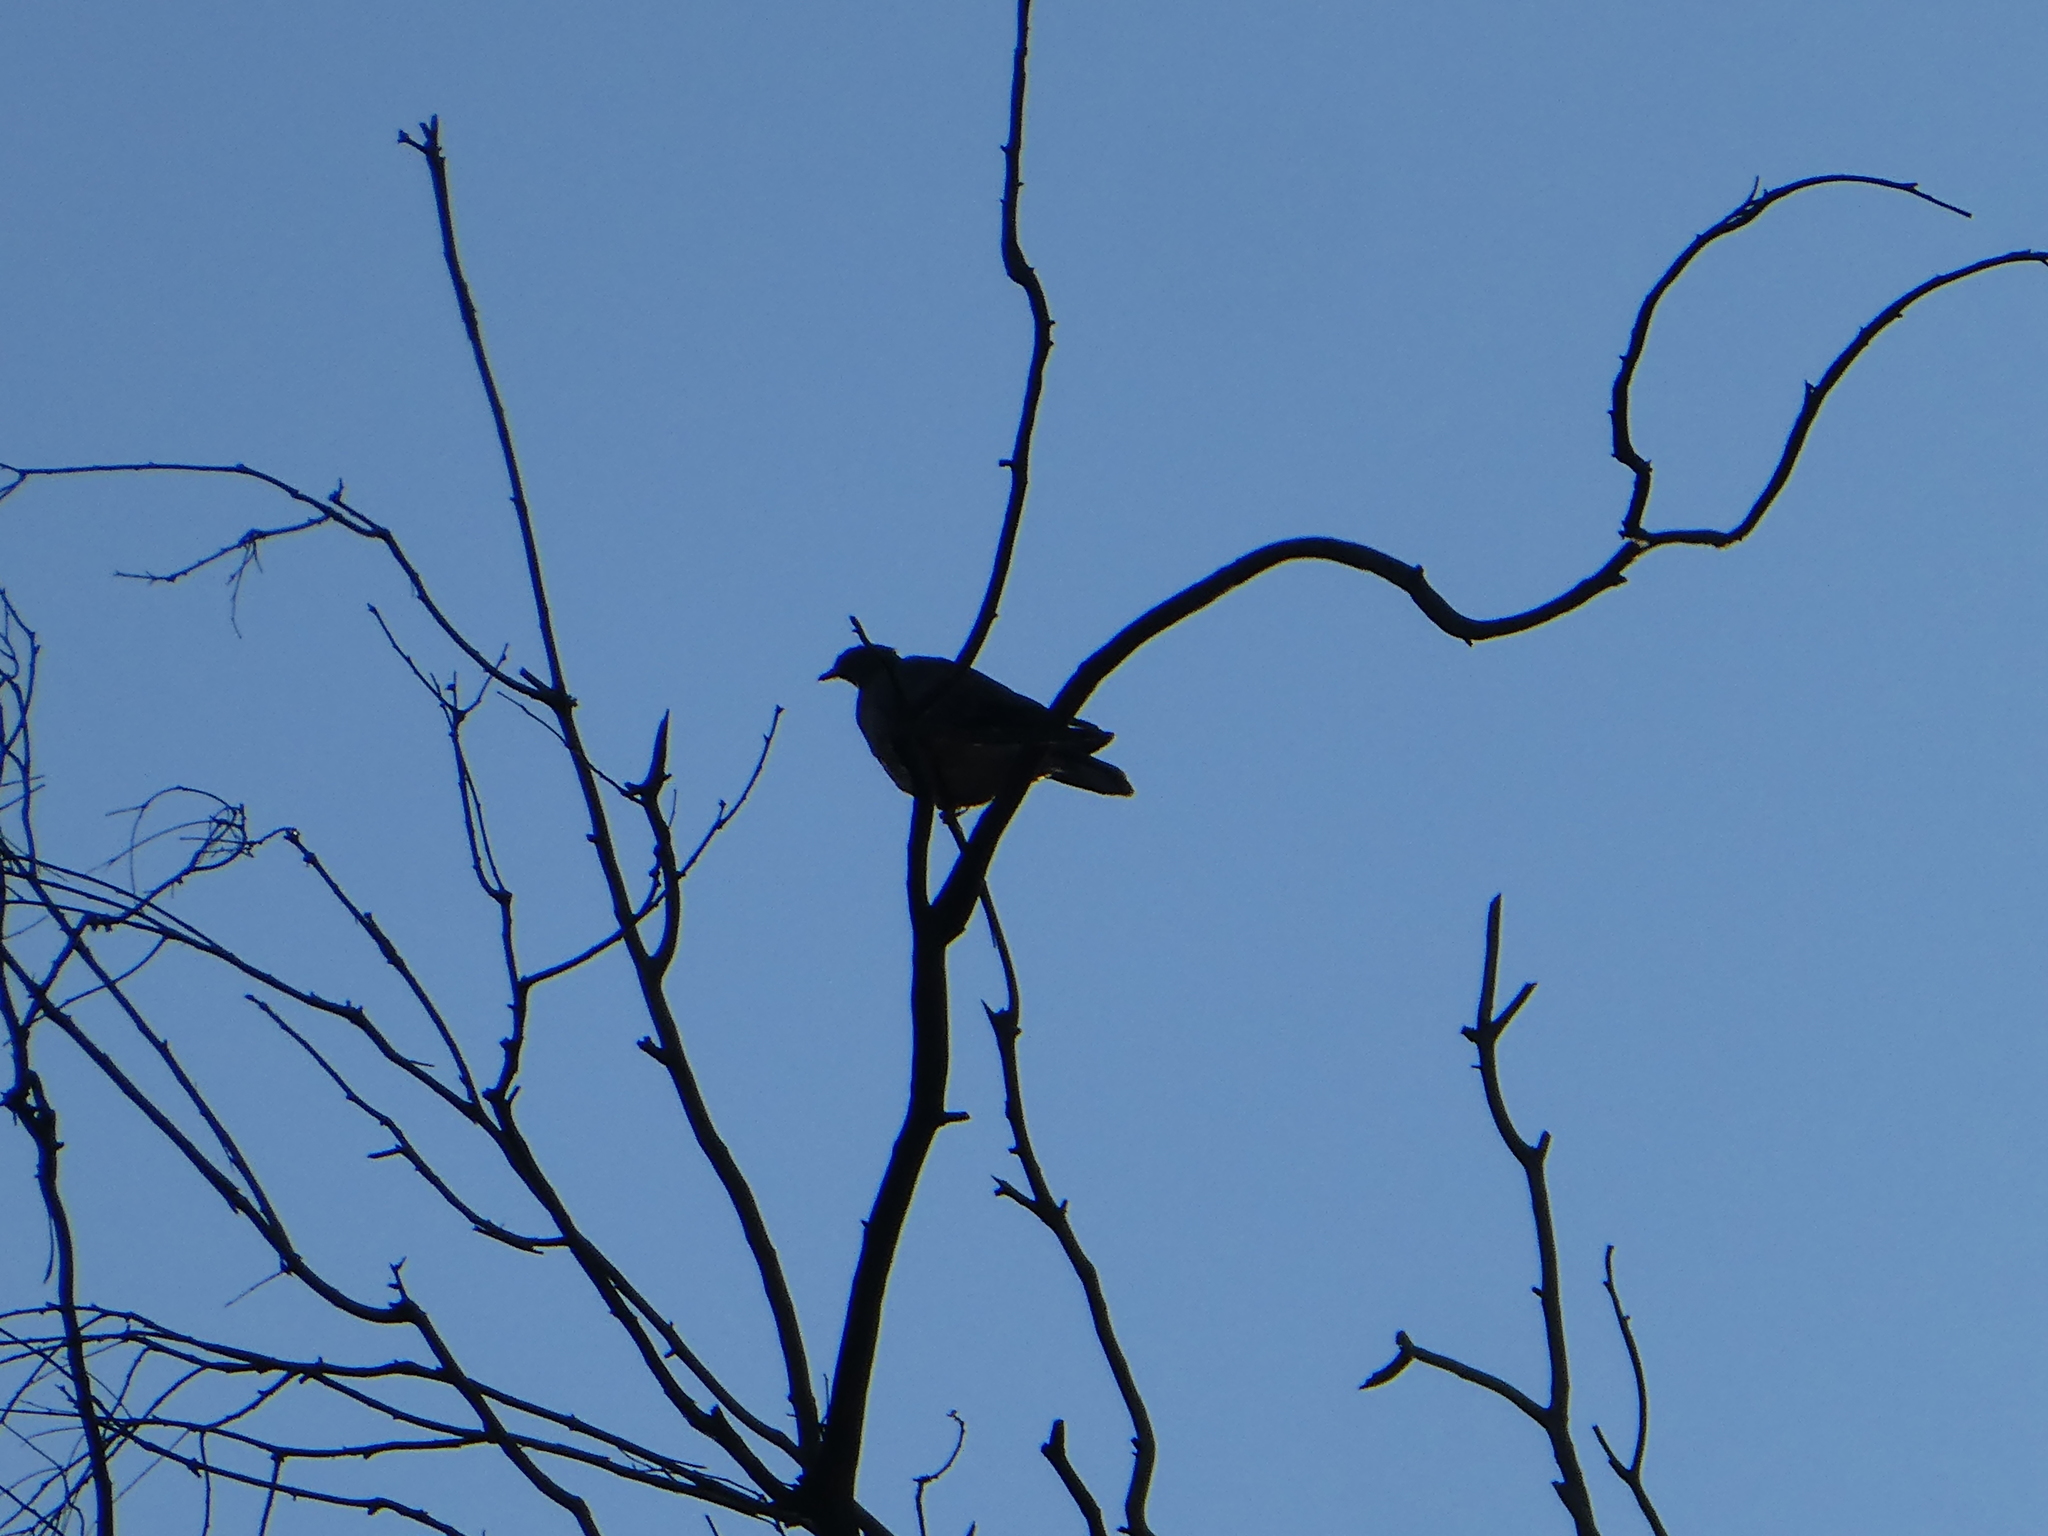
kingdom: Animalia
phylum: Chordata
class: Aves
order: Columbiformes
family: Columbidae
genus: Patagioenas
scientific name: Patagioenas fasciata
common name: Band-tailed pigeon
